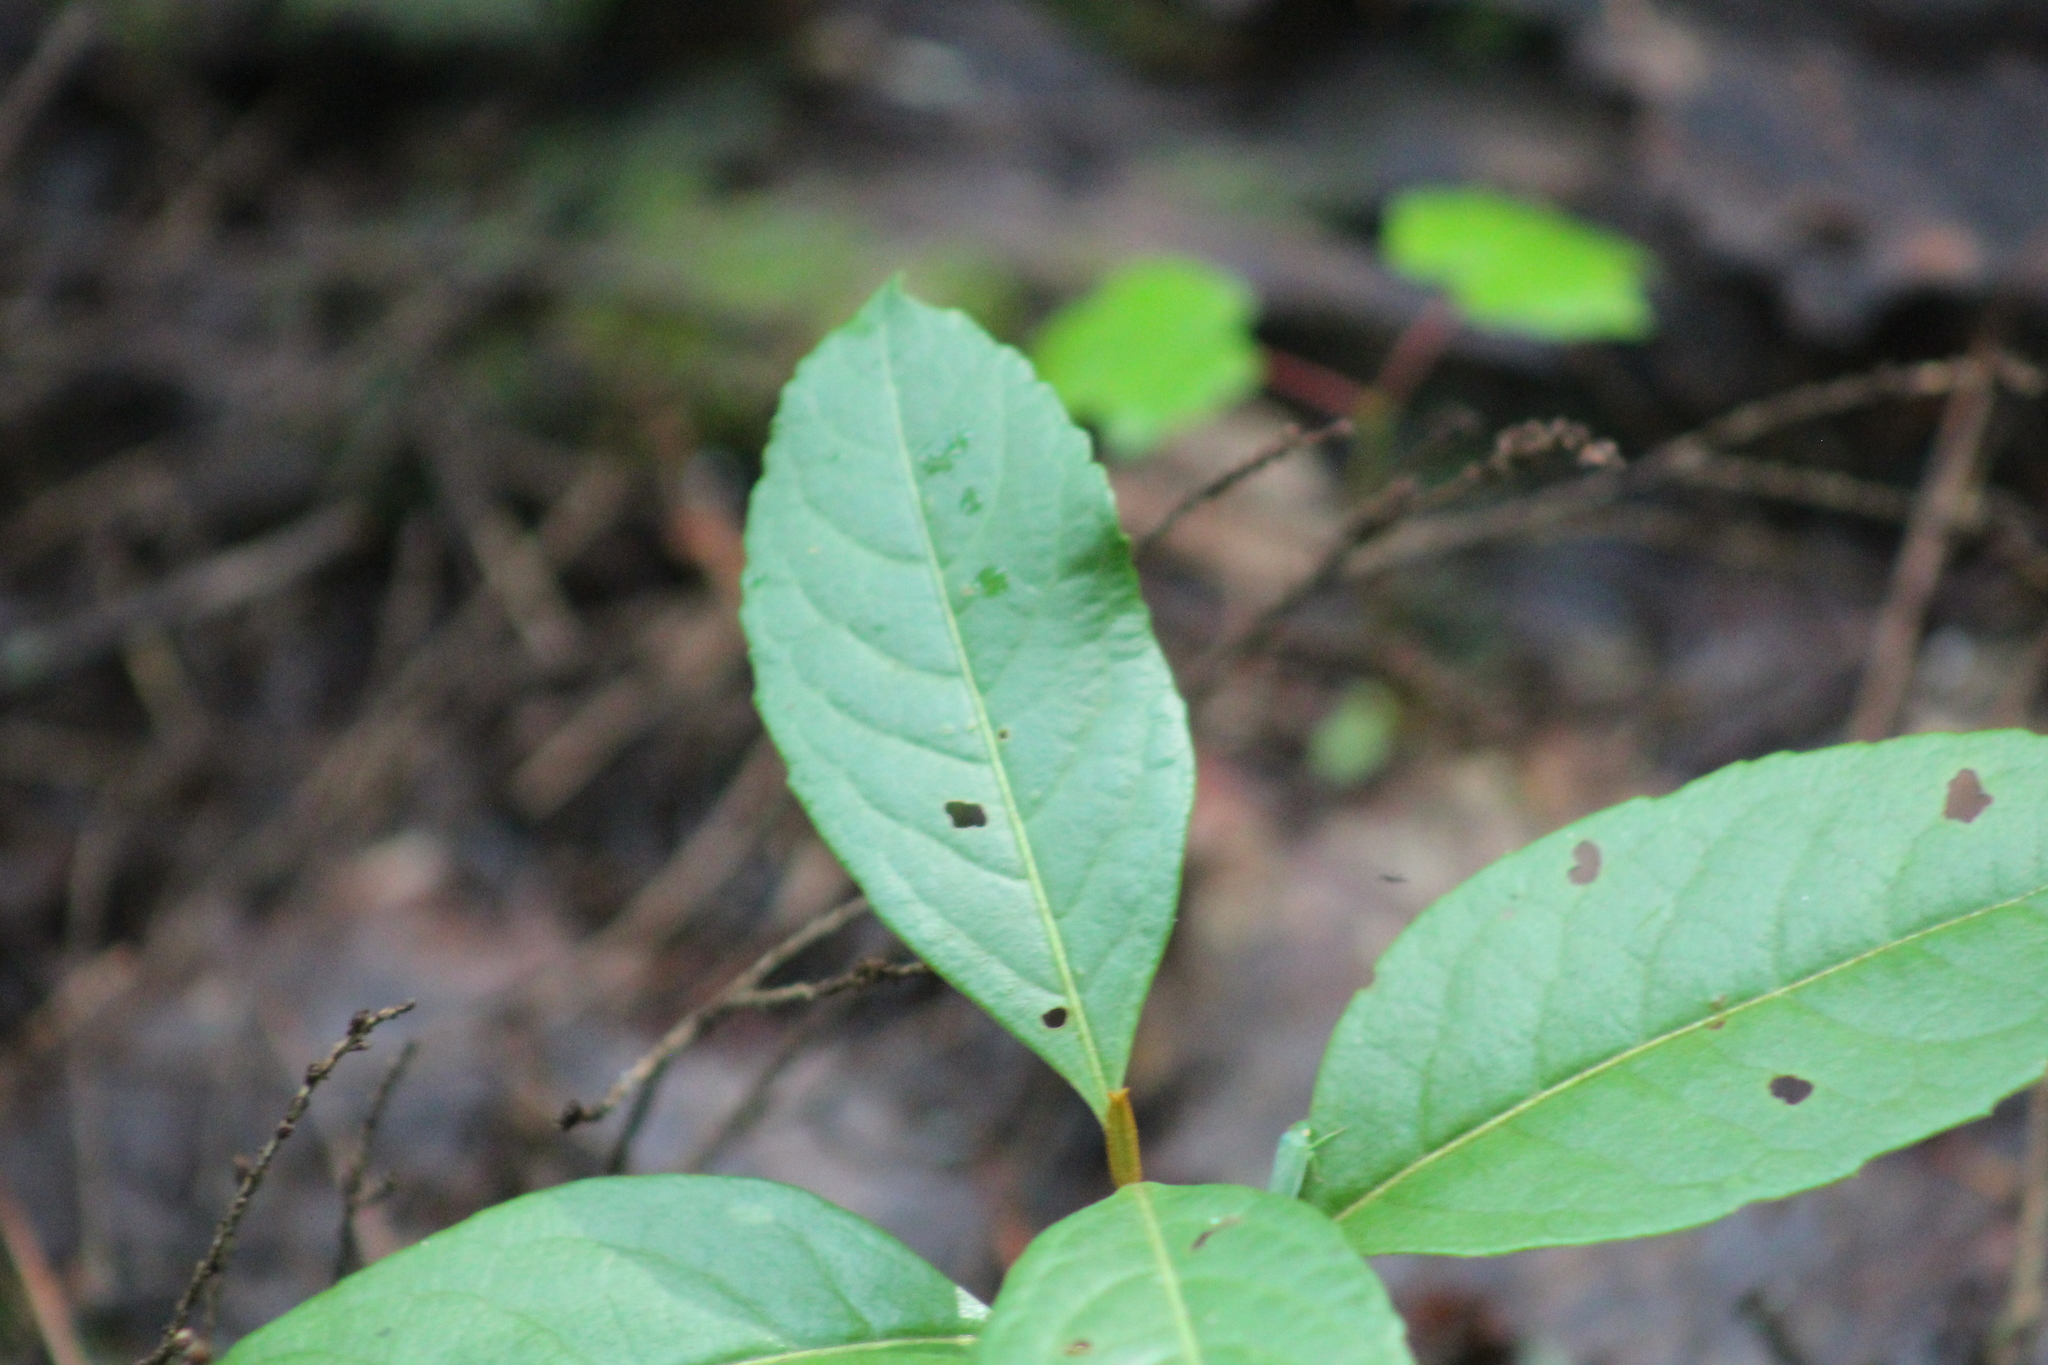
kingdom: Plantae
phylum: Tracheophyta
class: Magnoliopsida
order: Dipsacales
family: Viburnaceae
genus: Viburnum
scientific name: Viburnum cassinoides
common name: Swamp haw
